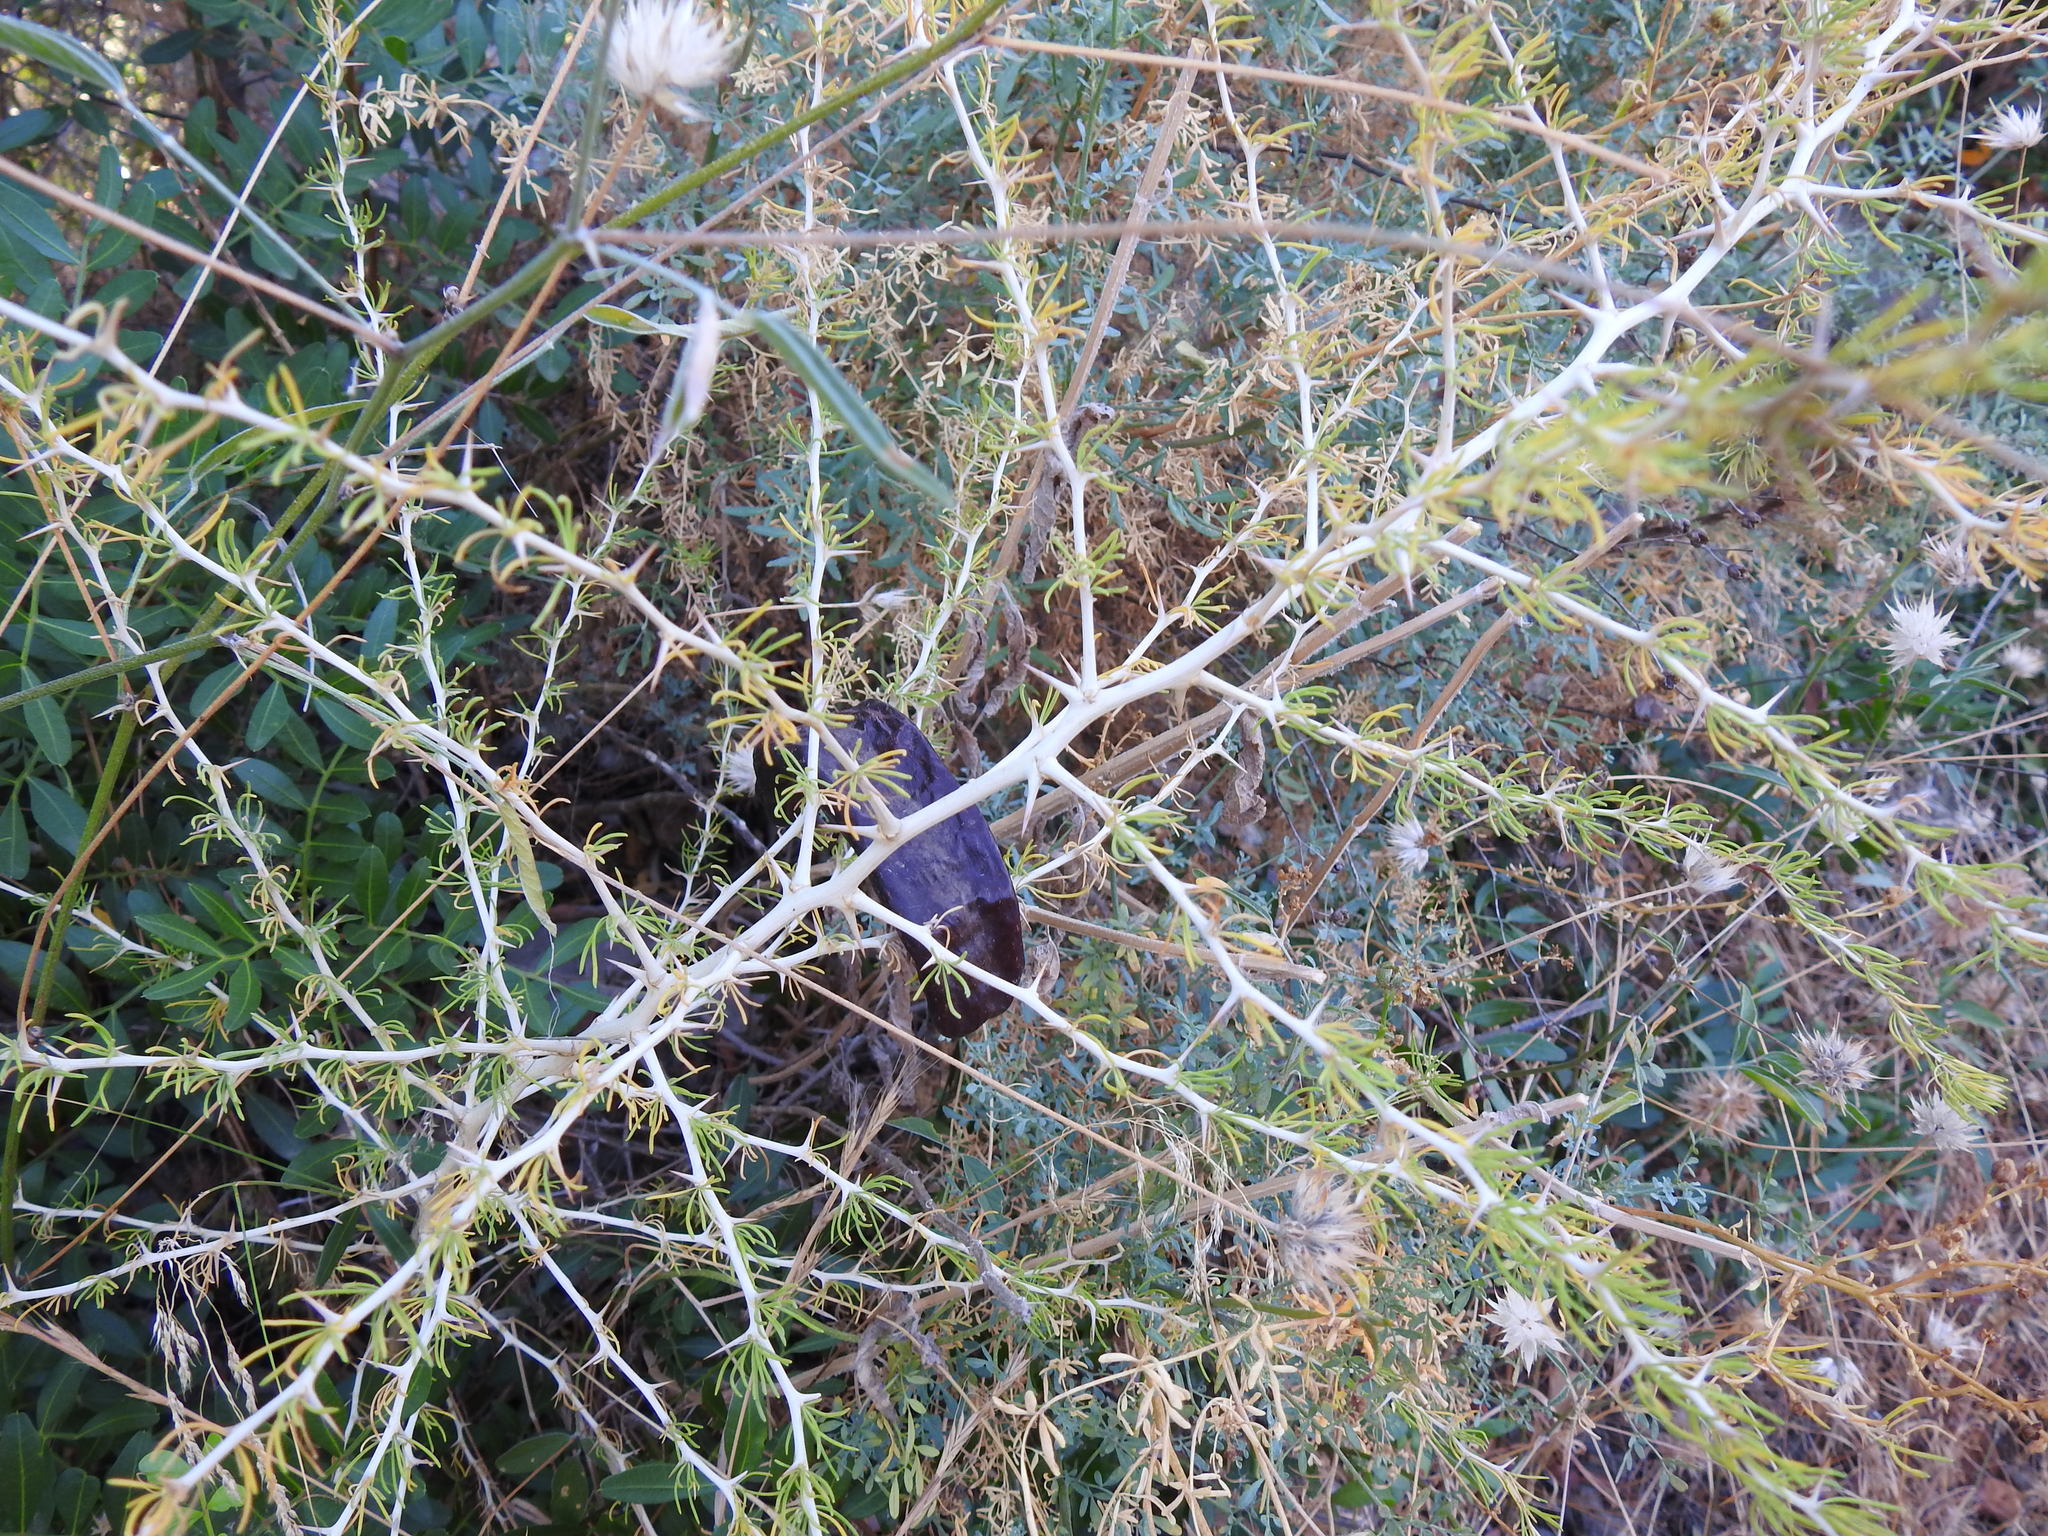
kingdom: Plantae
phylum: Tracheophyta
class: Liliopsida
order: Asparagales
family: Asparagaceae
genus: Asparagus
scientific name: Asparagus albus
